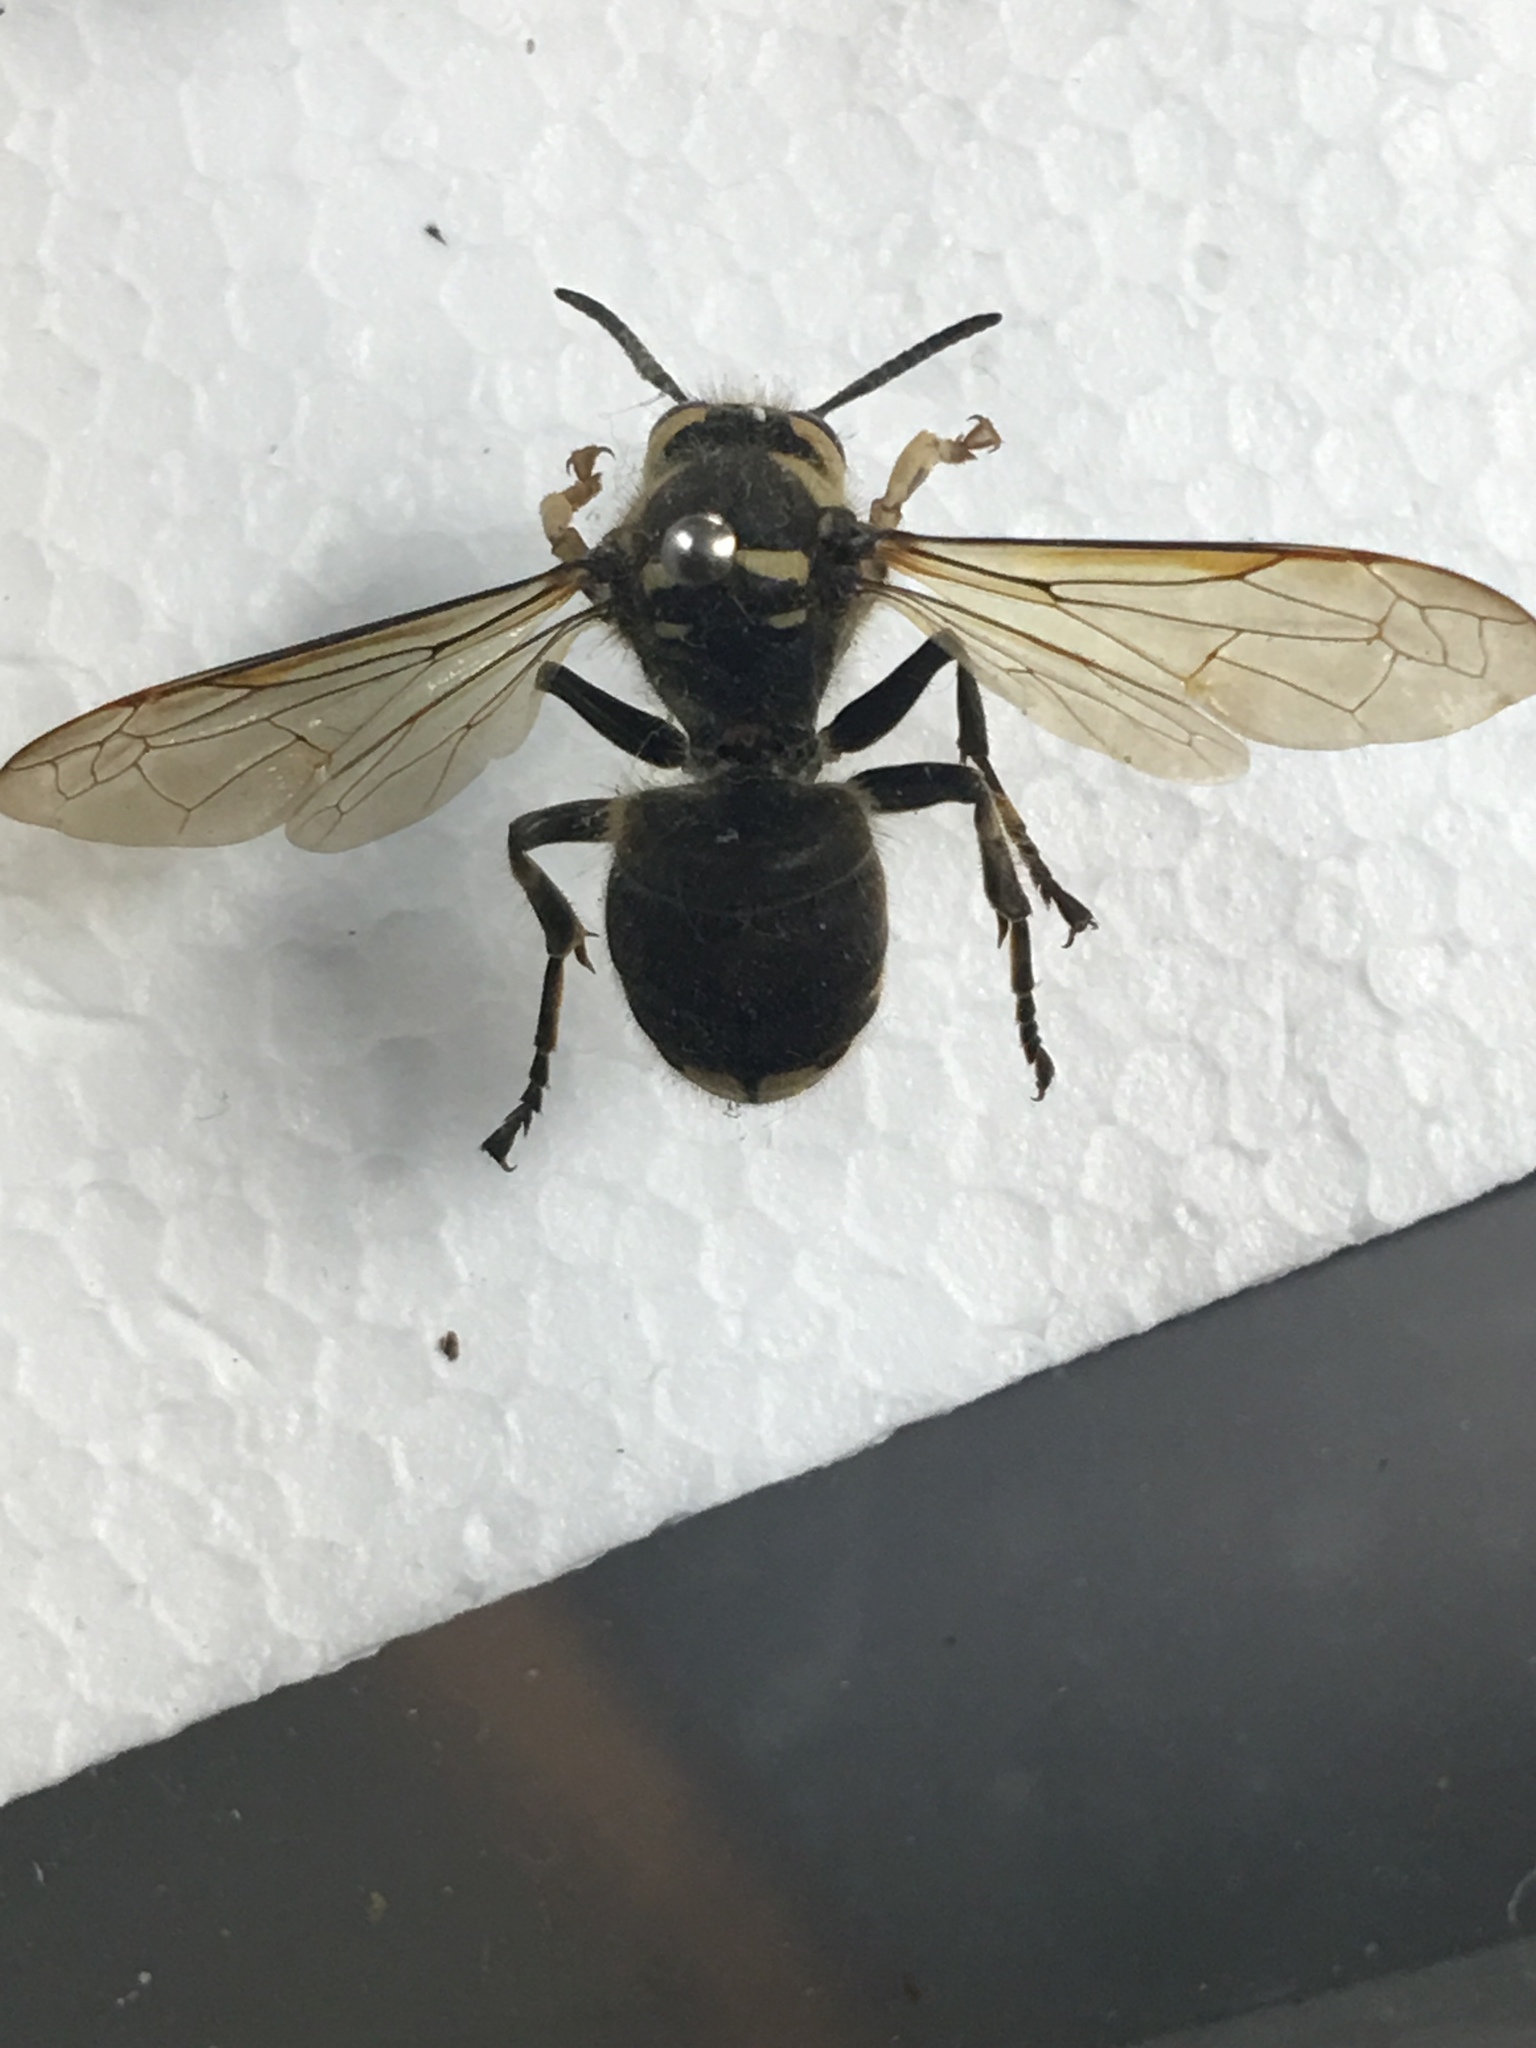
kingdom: Animalia
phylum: Arthropoda
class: Insecta
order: Hymenoptera
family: Vespidae
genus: Dolichovespula
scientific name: Dolichovespula maculata
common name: Bald-faced hornet
